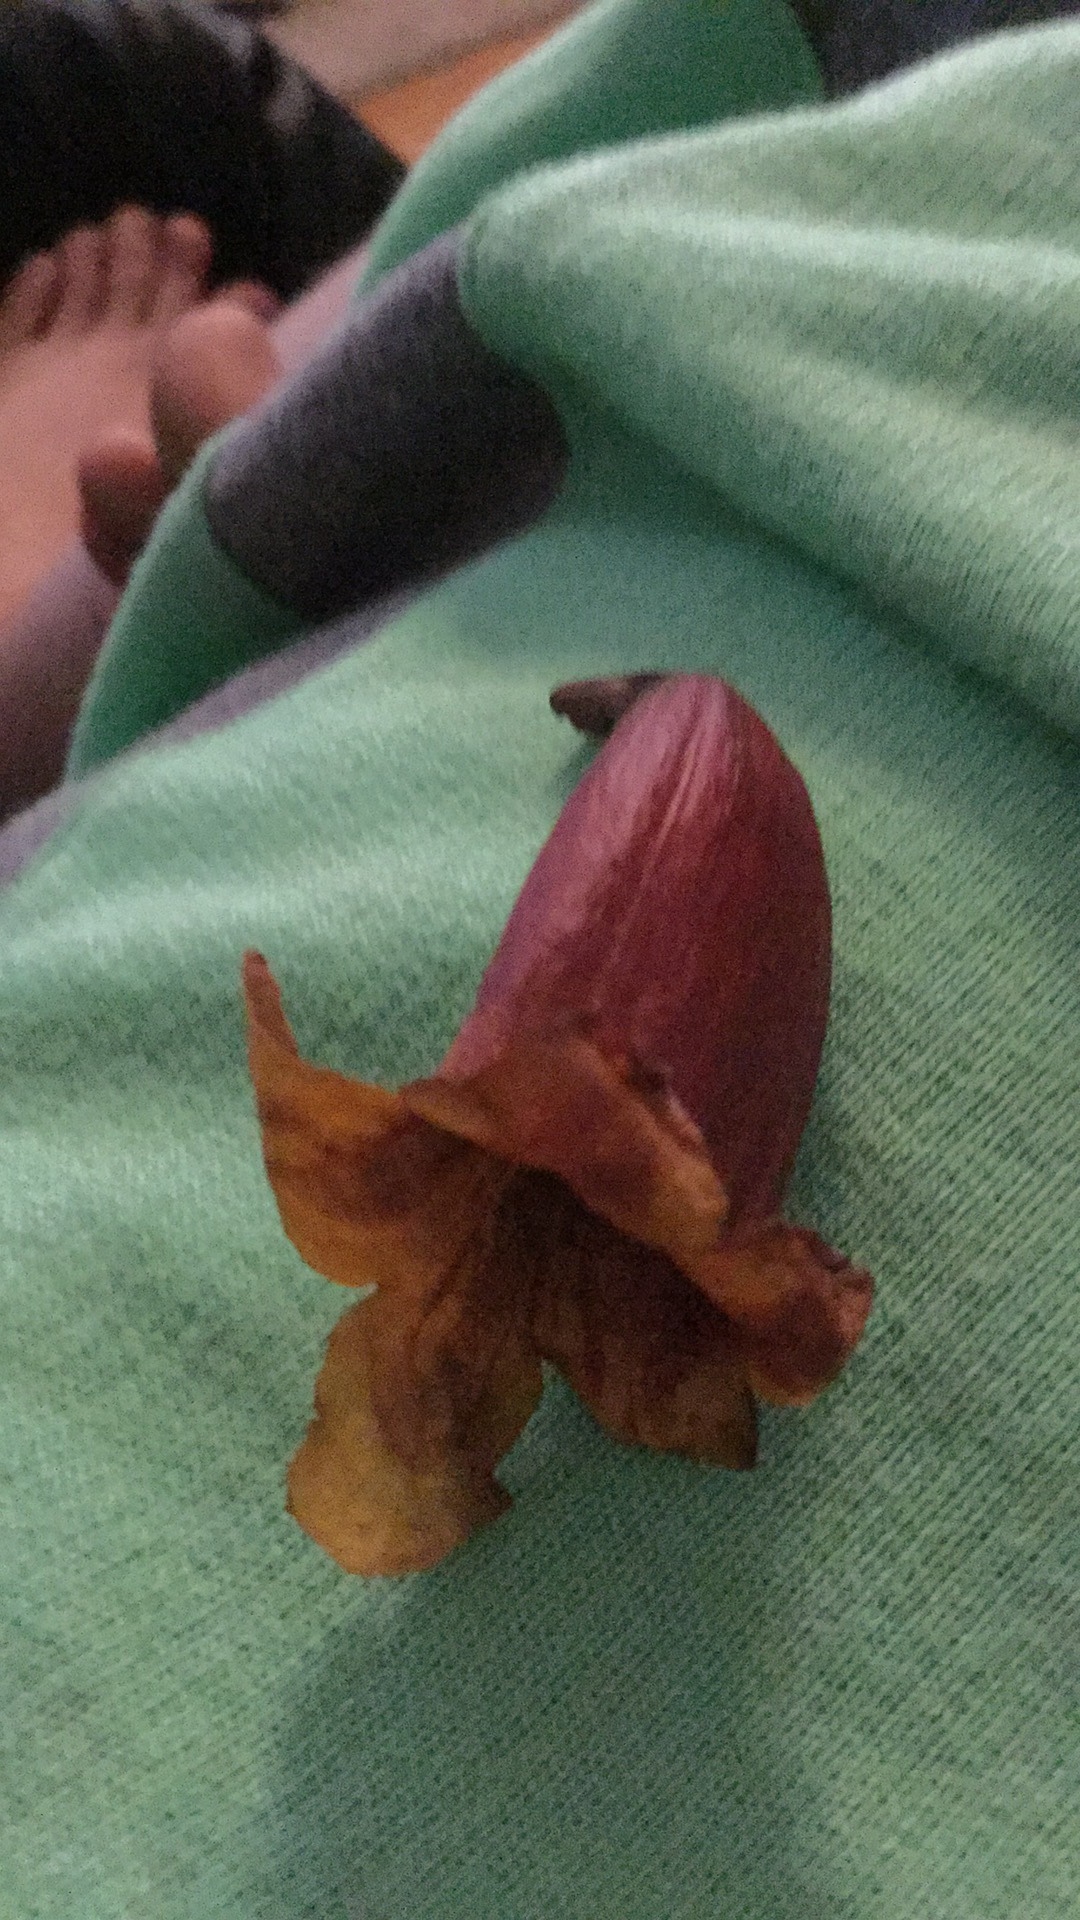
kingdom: Plantae
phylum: Tracheophyta
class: Magnoliopsida
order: Lamiales
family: Bignoniaceae
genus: Bignonia
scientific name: Bignonia capreolata
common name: Crossvine
